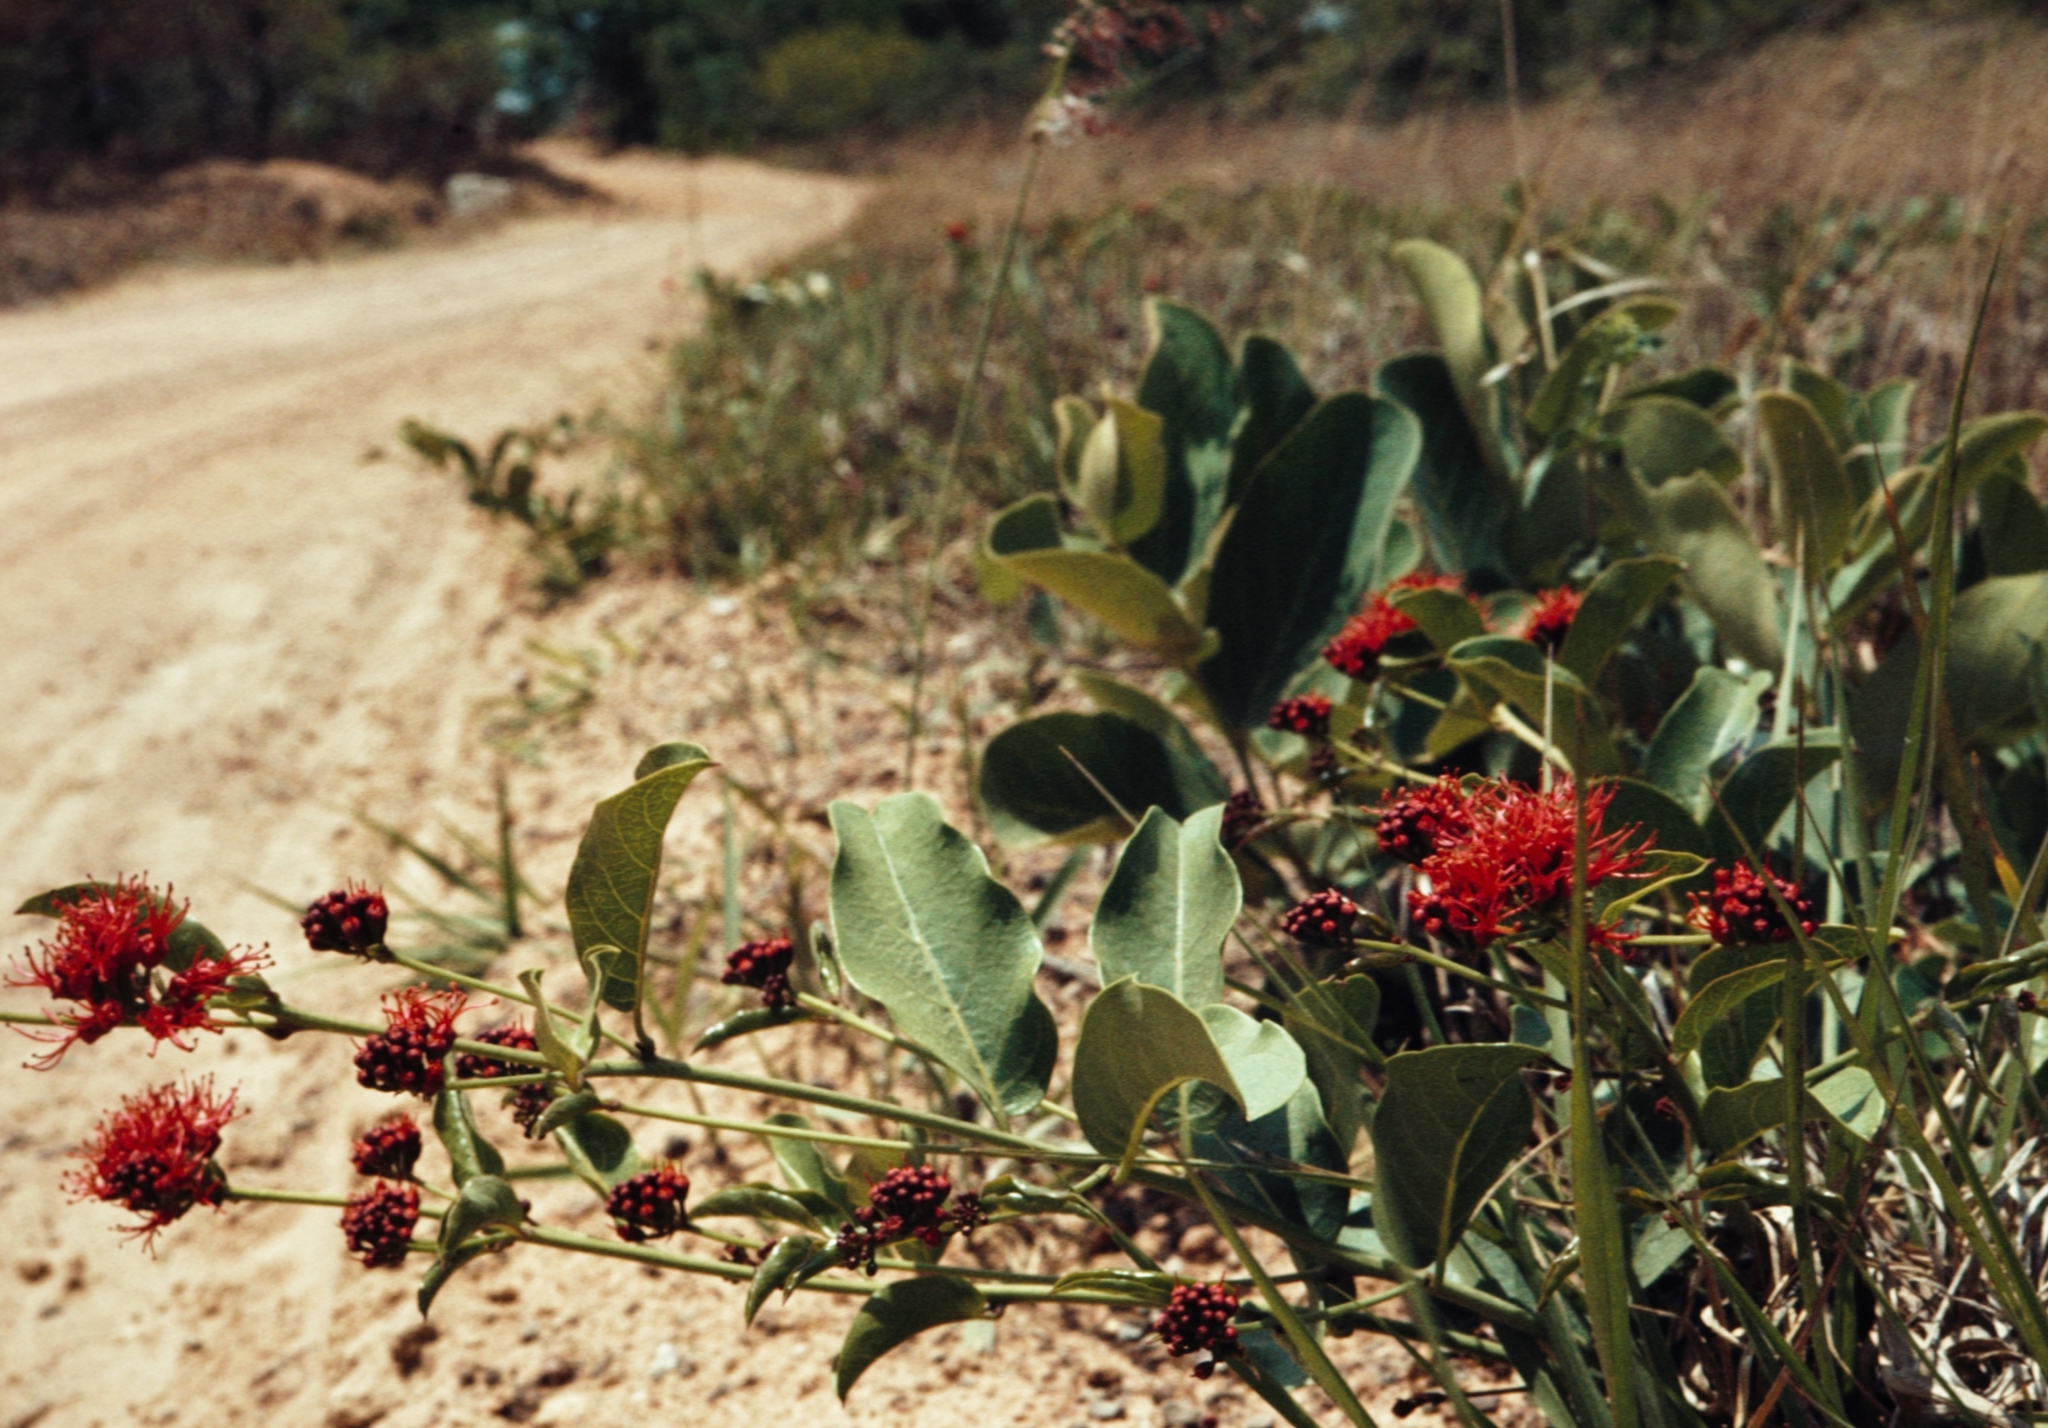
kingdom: Plantae
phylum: Tracheophyta
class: Magnoliopsida
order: Myrtales
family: Combretaceae
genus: Combretum
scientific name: Combretum oatesii
